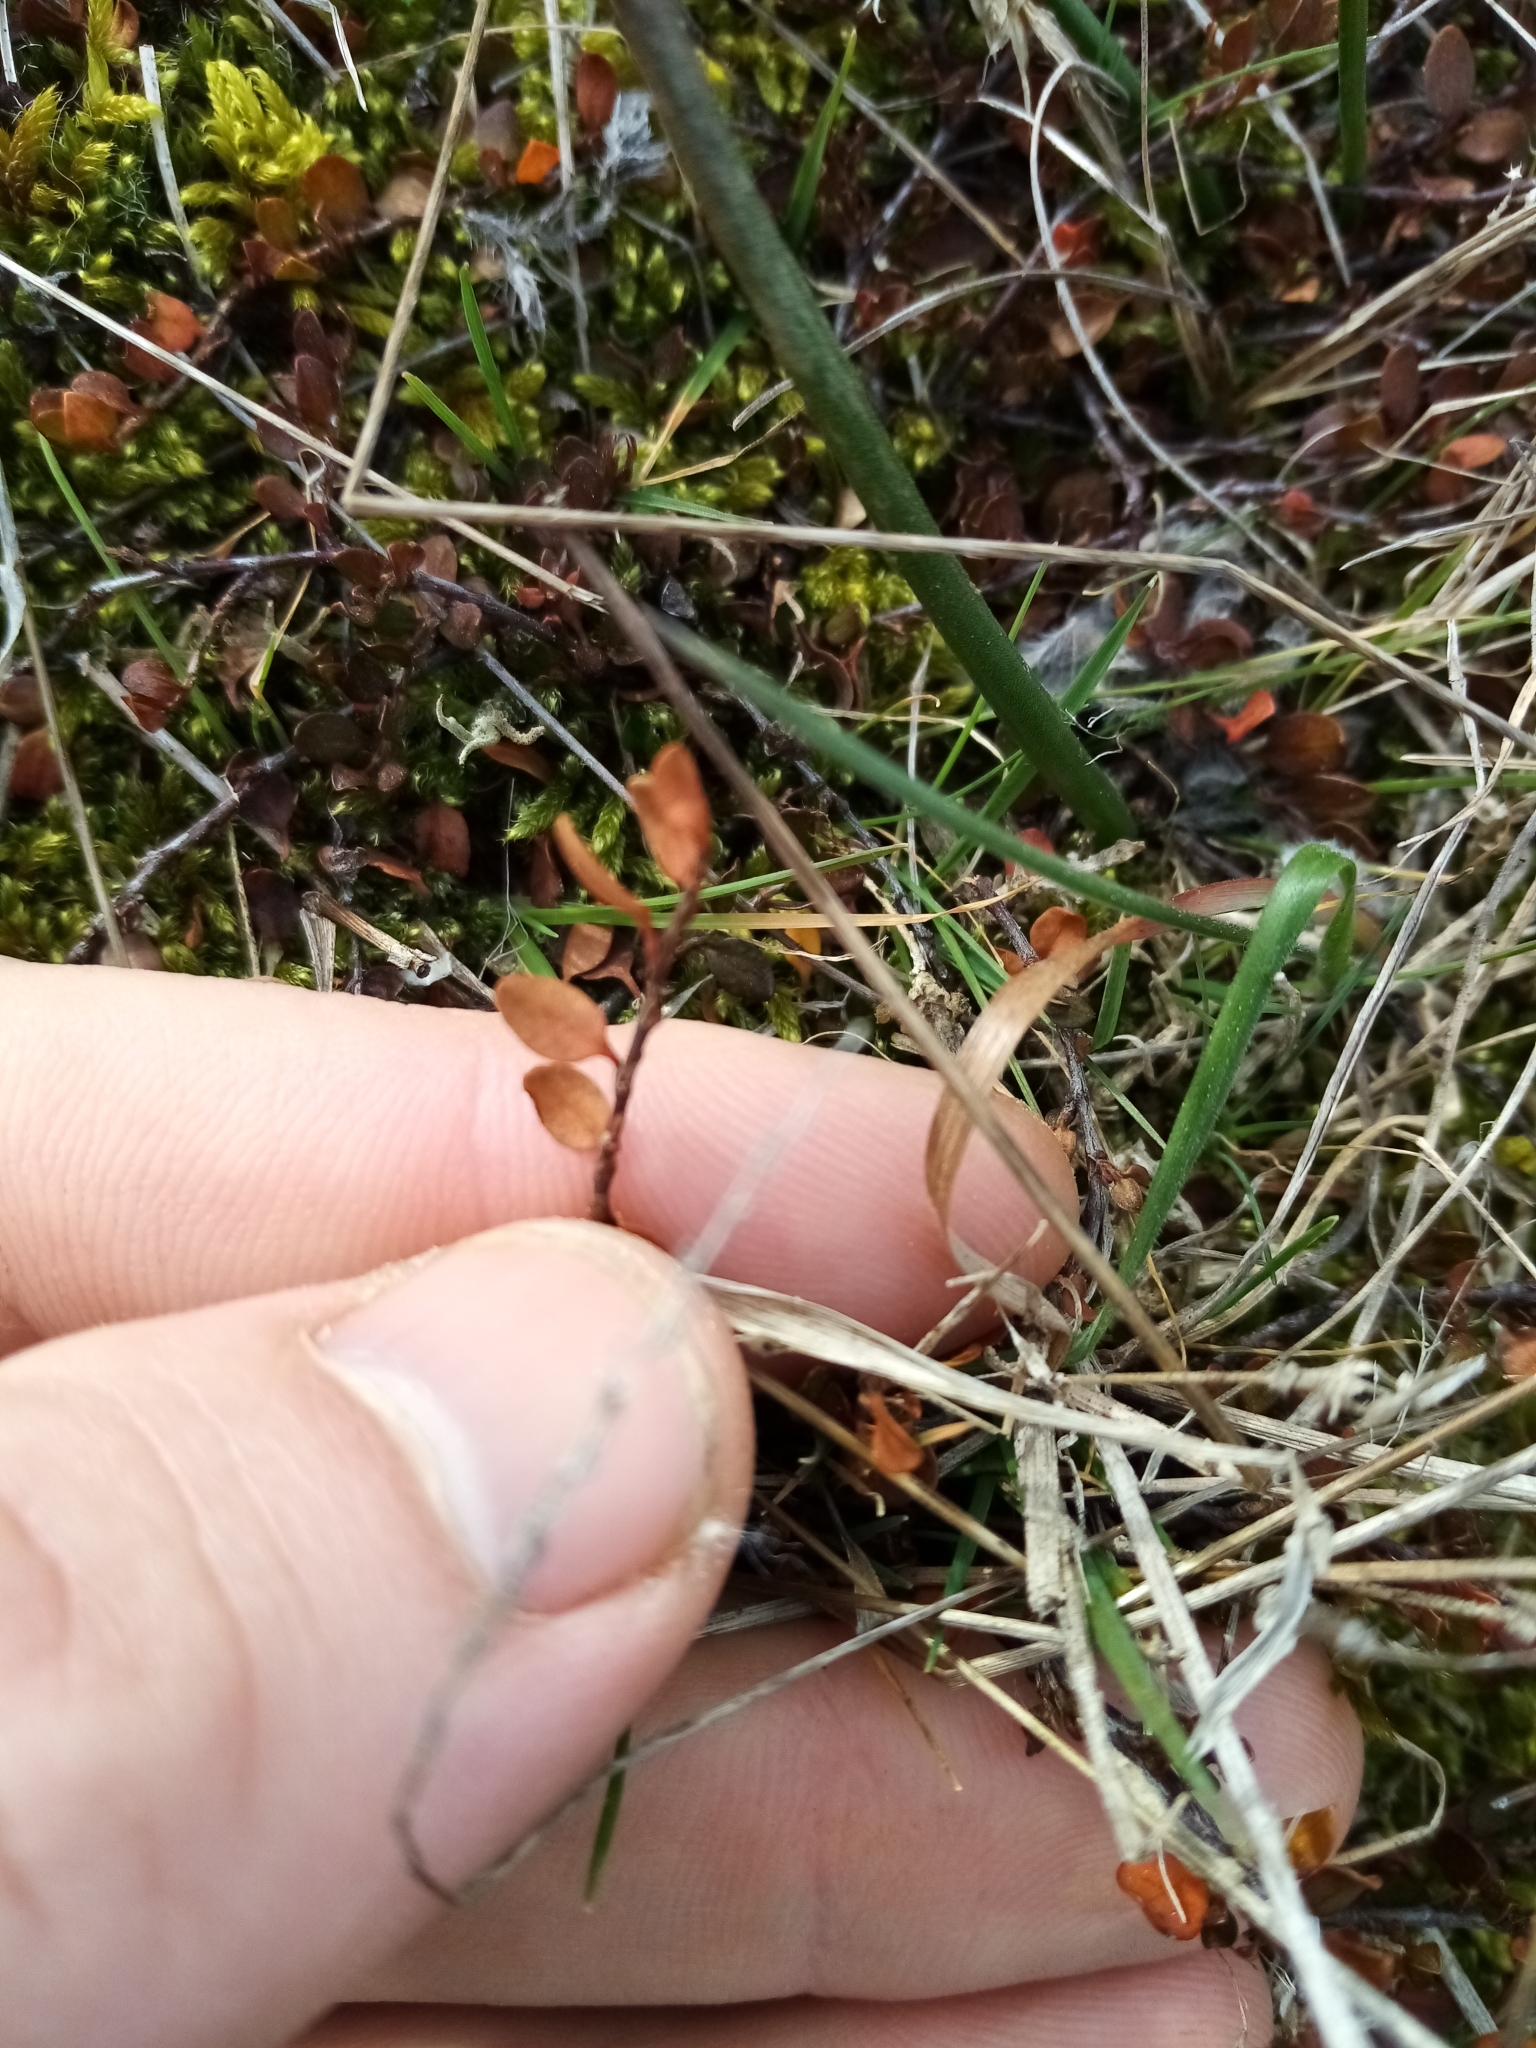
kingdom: Plantae
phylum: Tracheophyta
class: Magnoliopsida
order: Caryophyllales
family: Polygonaceae
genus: Muehlenbeckia
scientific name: Muehlenbeckia axillaris
